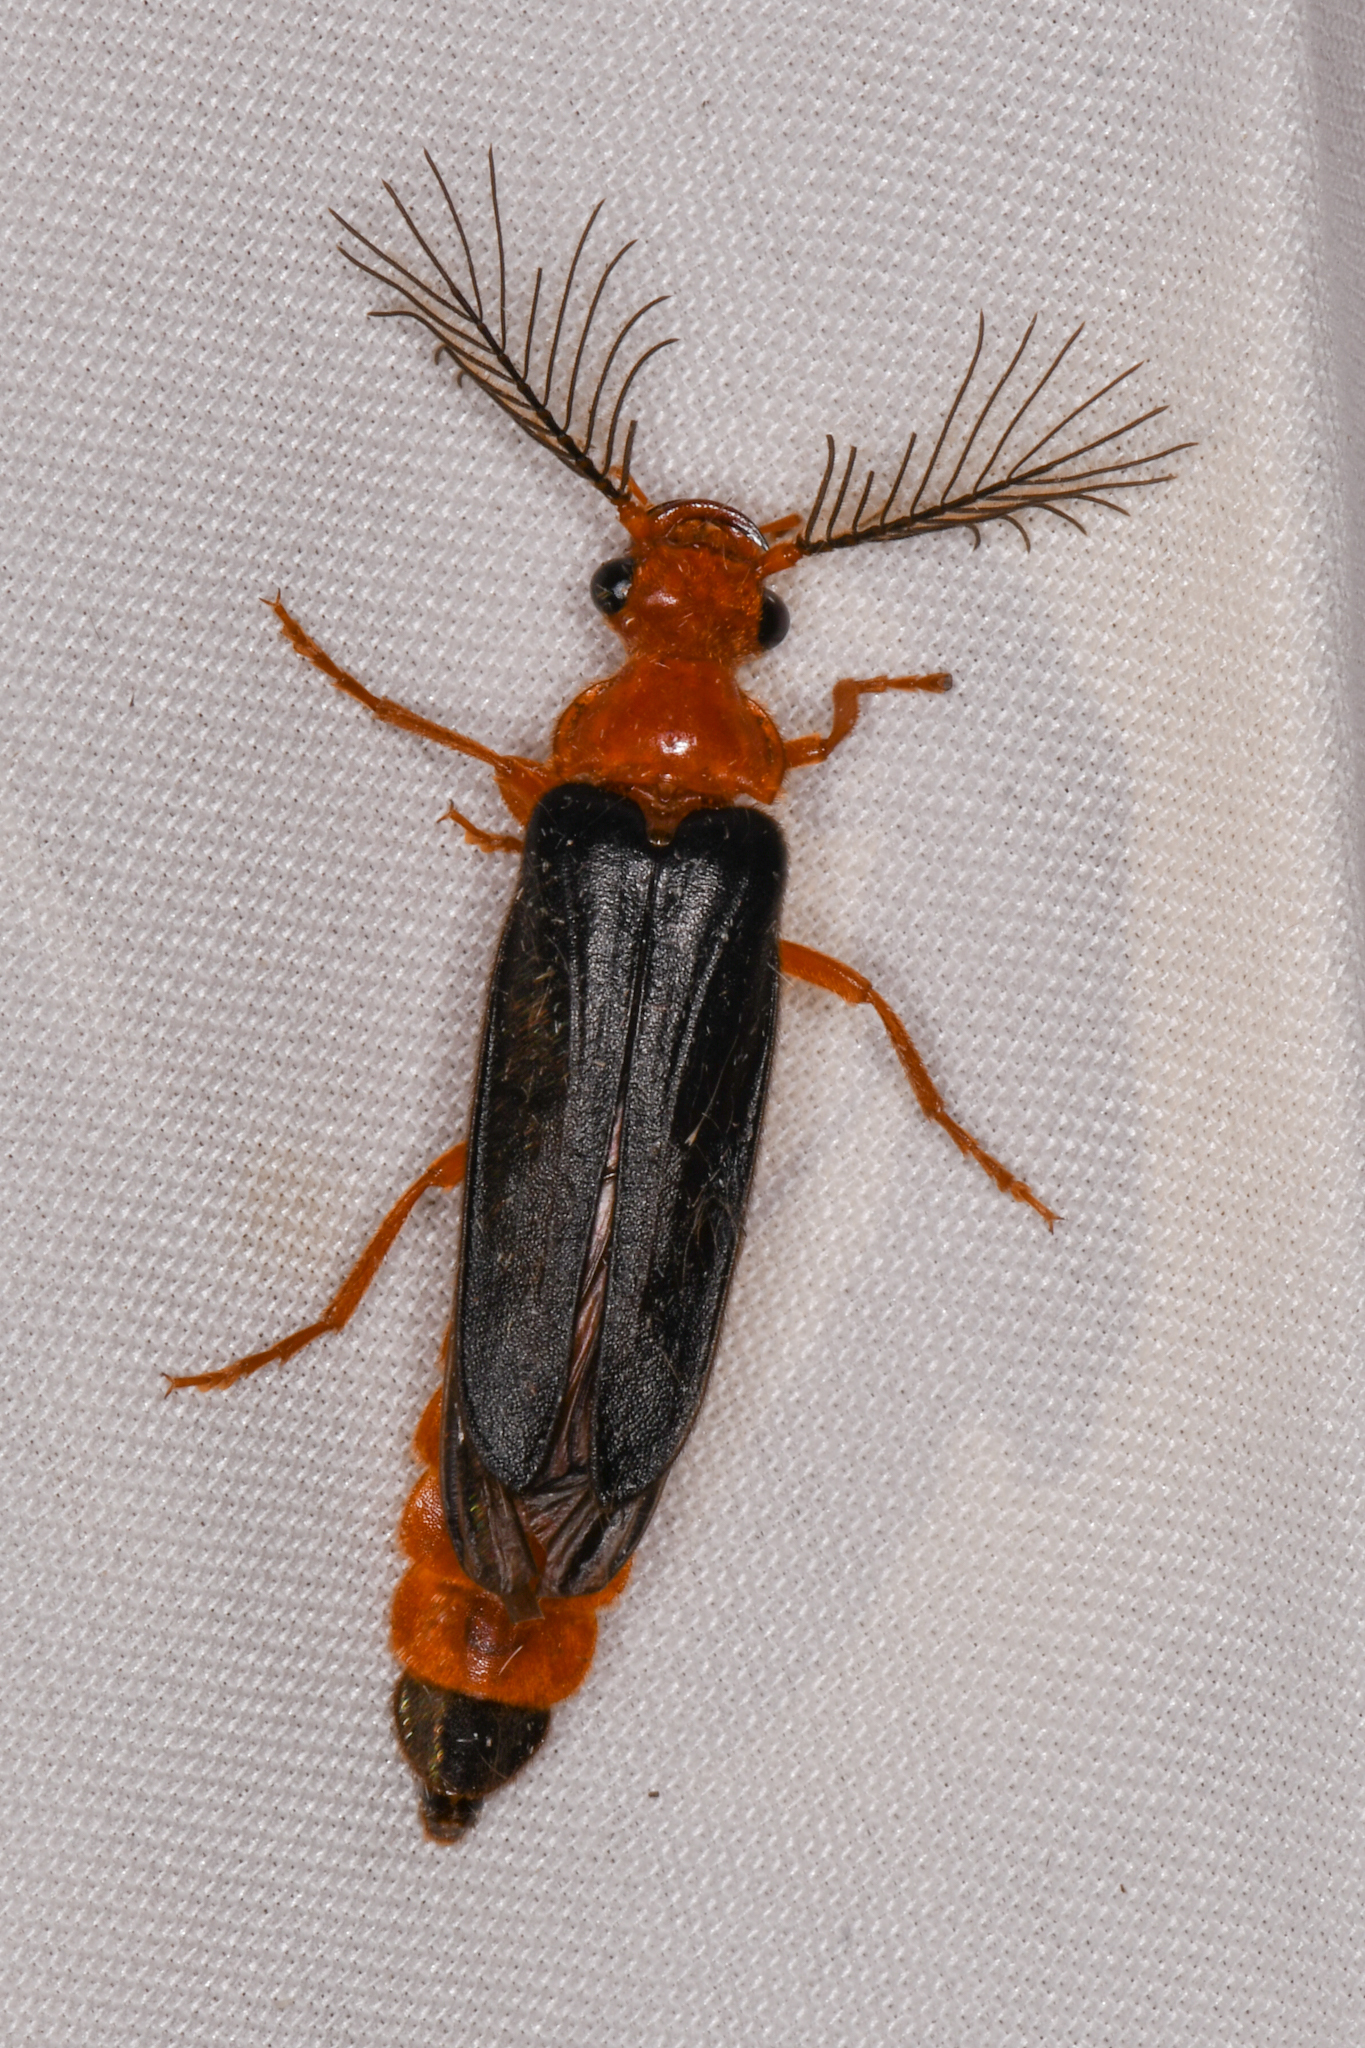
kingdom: Animalia
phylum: Arthropoda
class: Insecta
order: Coleoptera
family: Phengodidae
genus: Zarhipis
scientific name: Zarhipis integripennis
